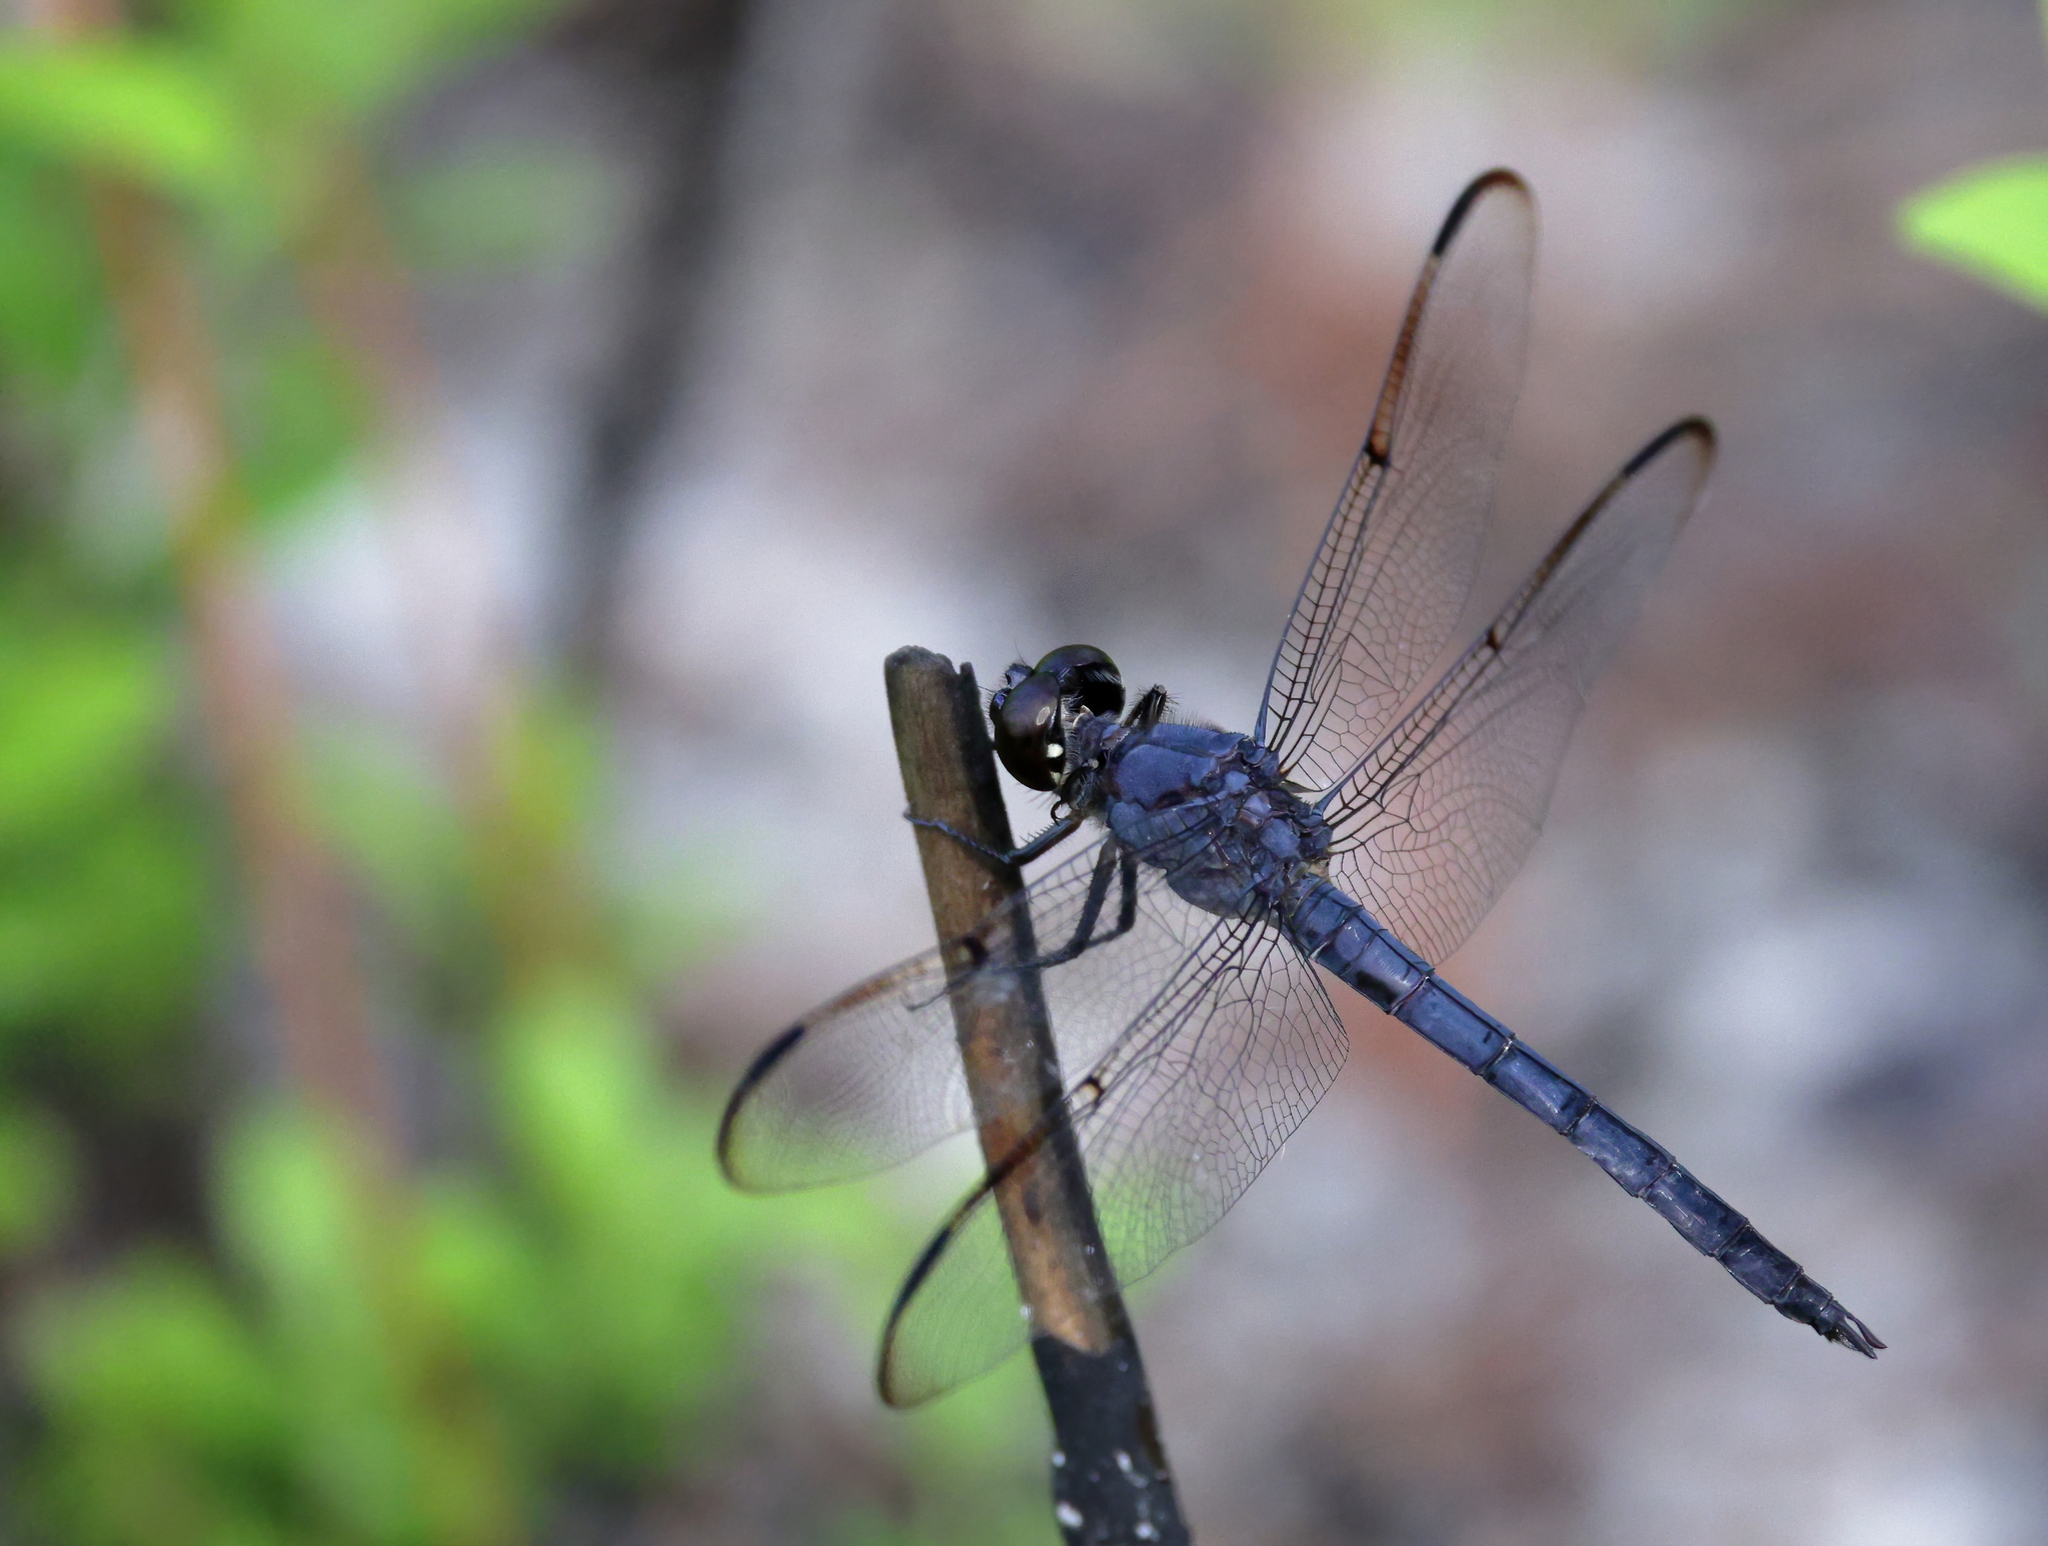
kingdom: Animalia
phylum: Arthropoda
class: Insecta
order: Odonata
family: Libellulidae
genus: Libellula
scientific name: Libellula incesta
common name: Slaty skimmer
